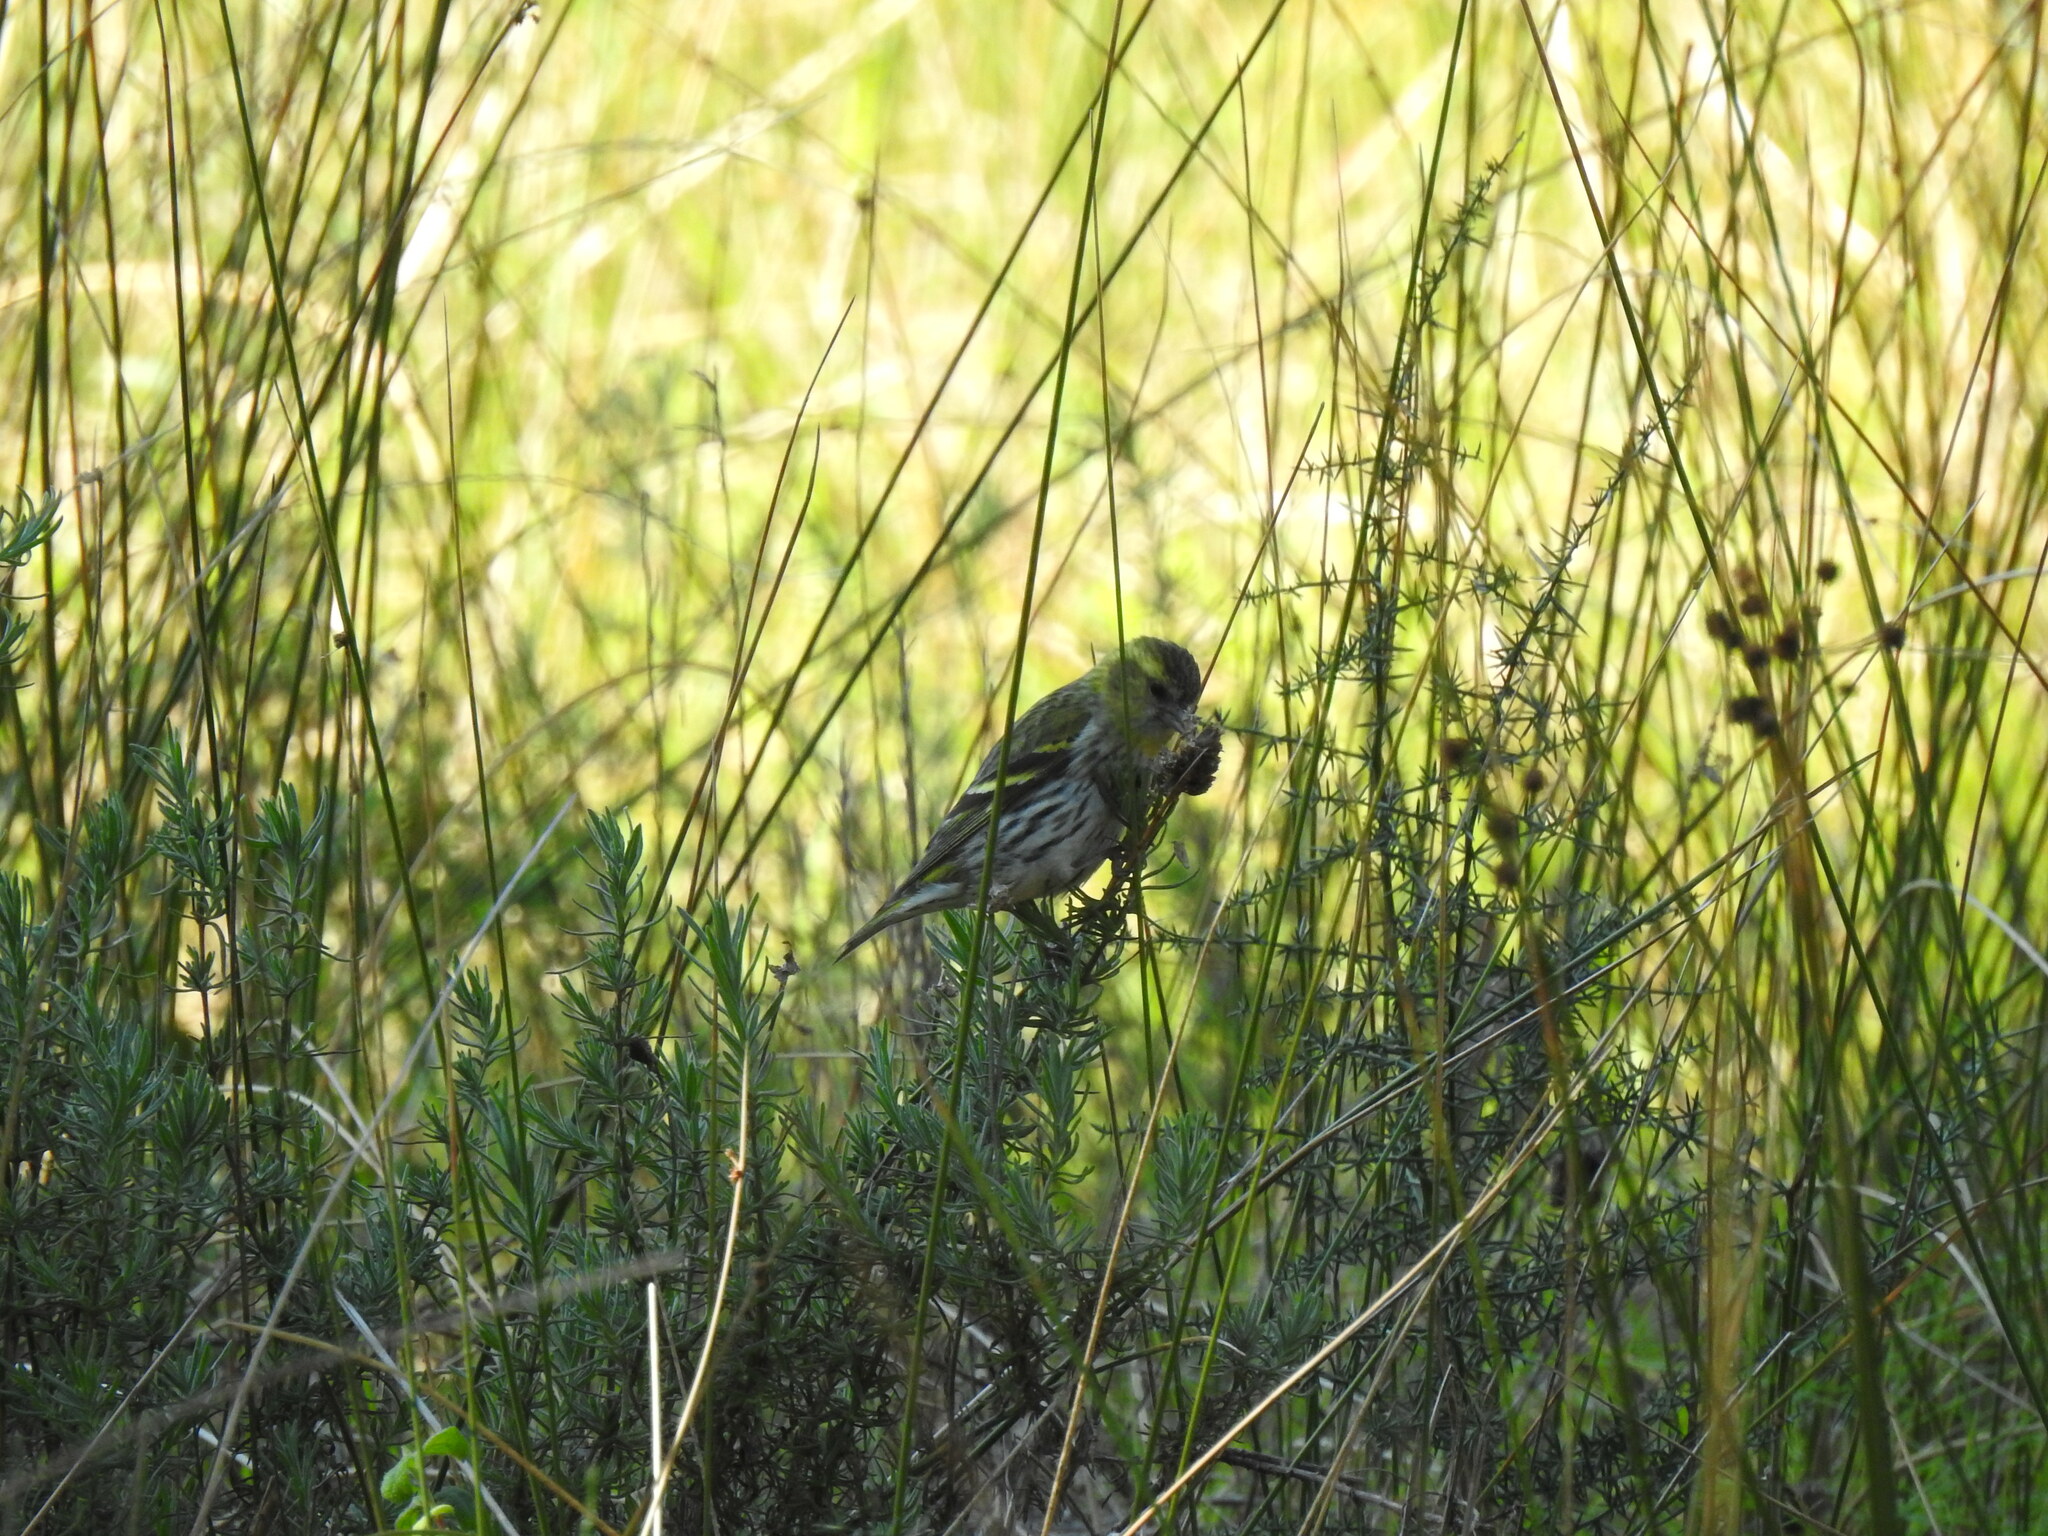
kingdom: Animalia
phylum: Chordata
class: Aves
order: Passeriformes
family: Fringillidae
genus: Spinus
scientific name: Spinus spinus
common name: Eurasian siskin
